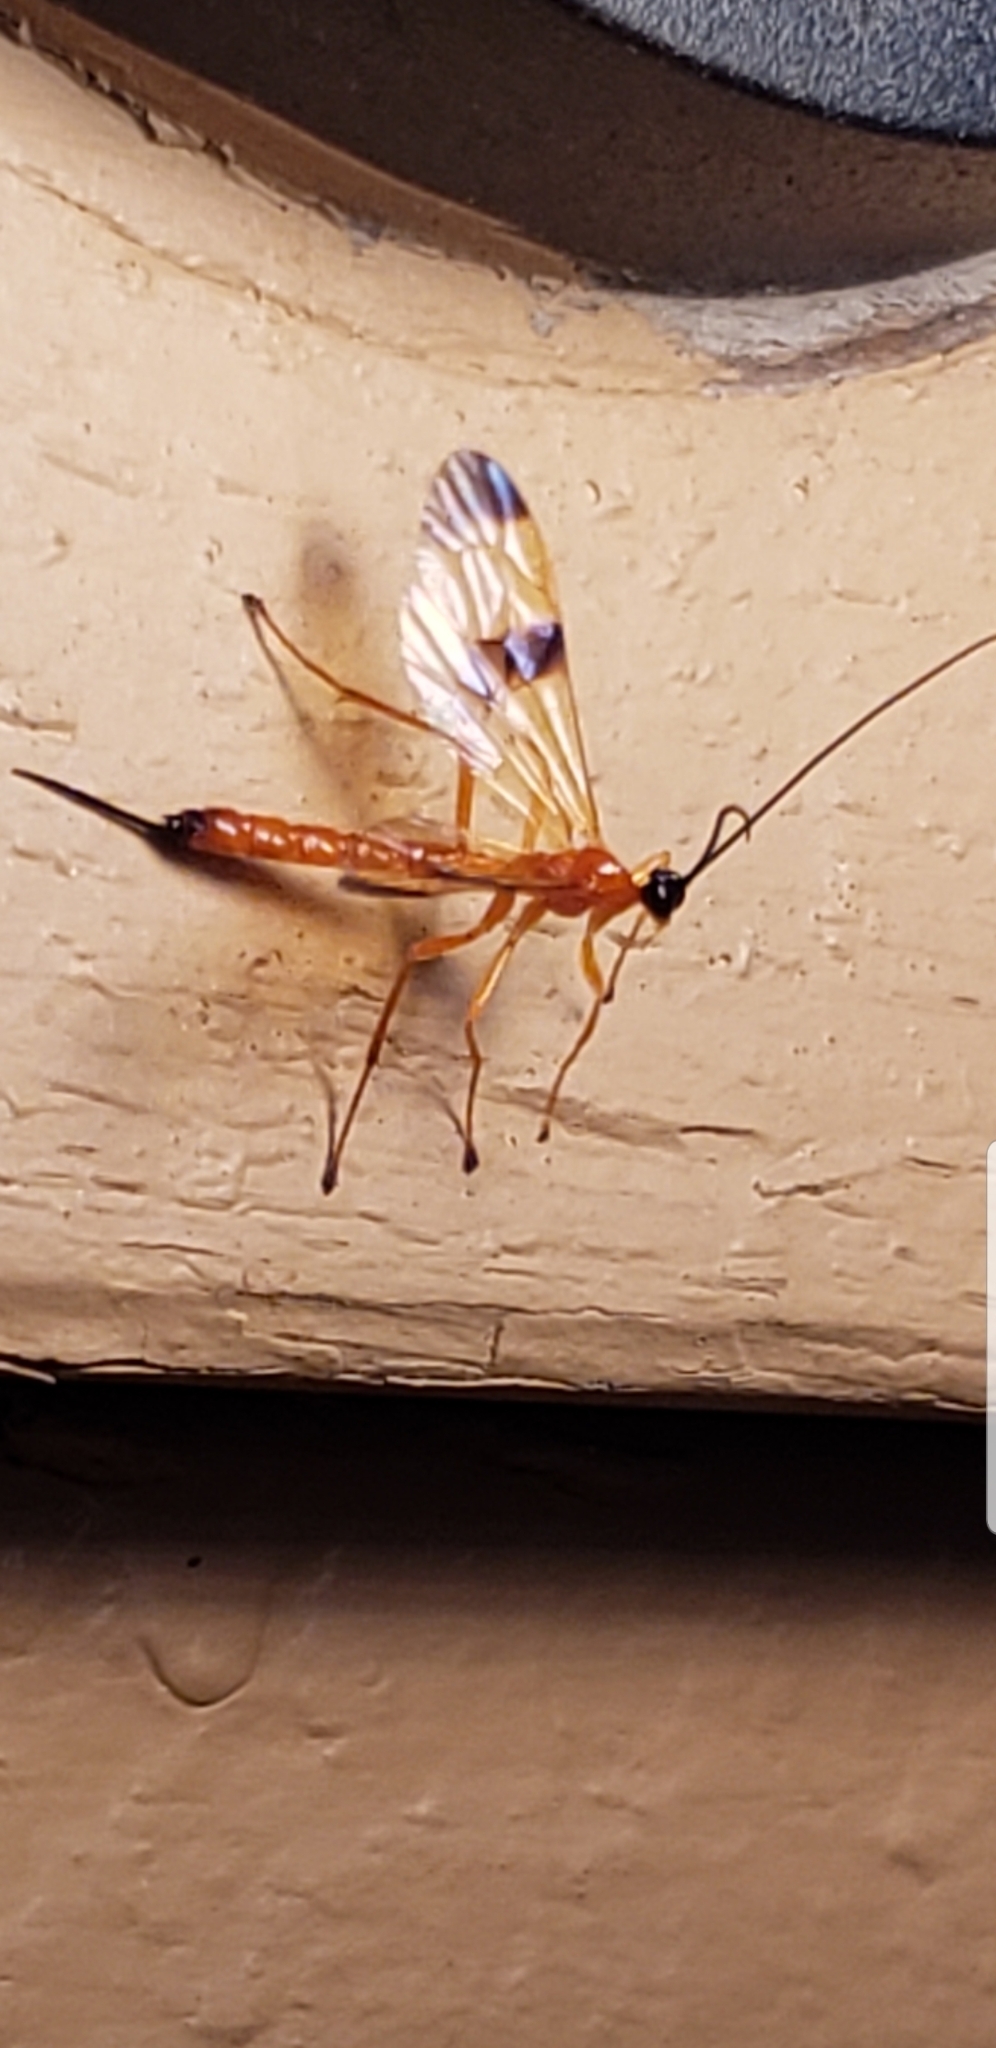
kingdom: Animalia
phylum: Arthropoda
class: Insecta
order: Hymenoptera
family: Ichneumonidae
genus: Acrotaphus
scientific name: Acrotaphus wiltii
